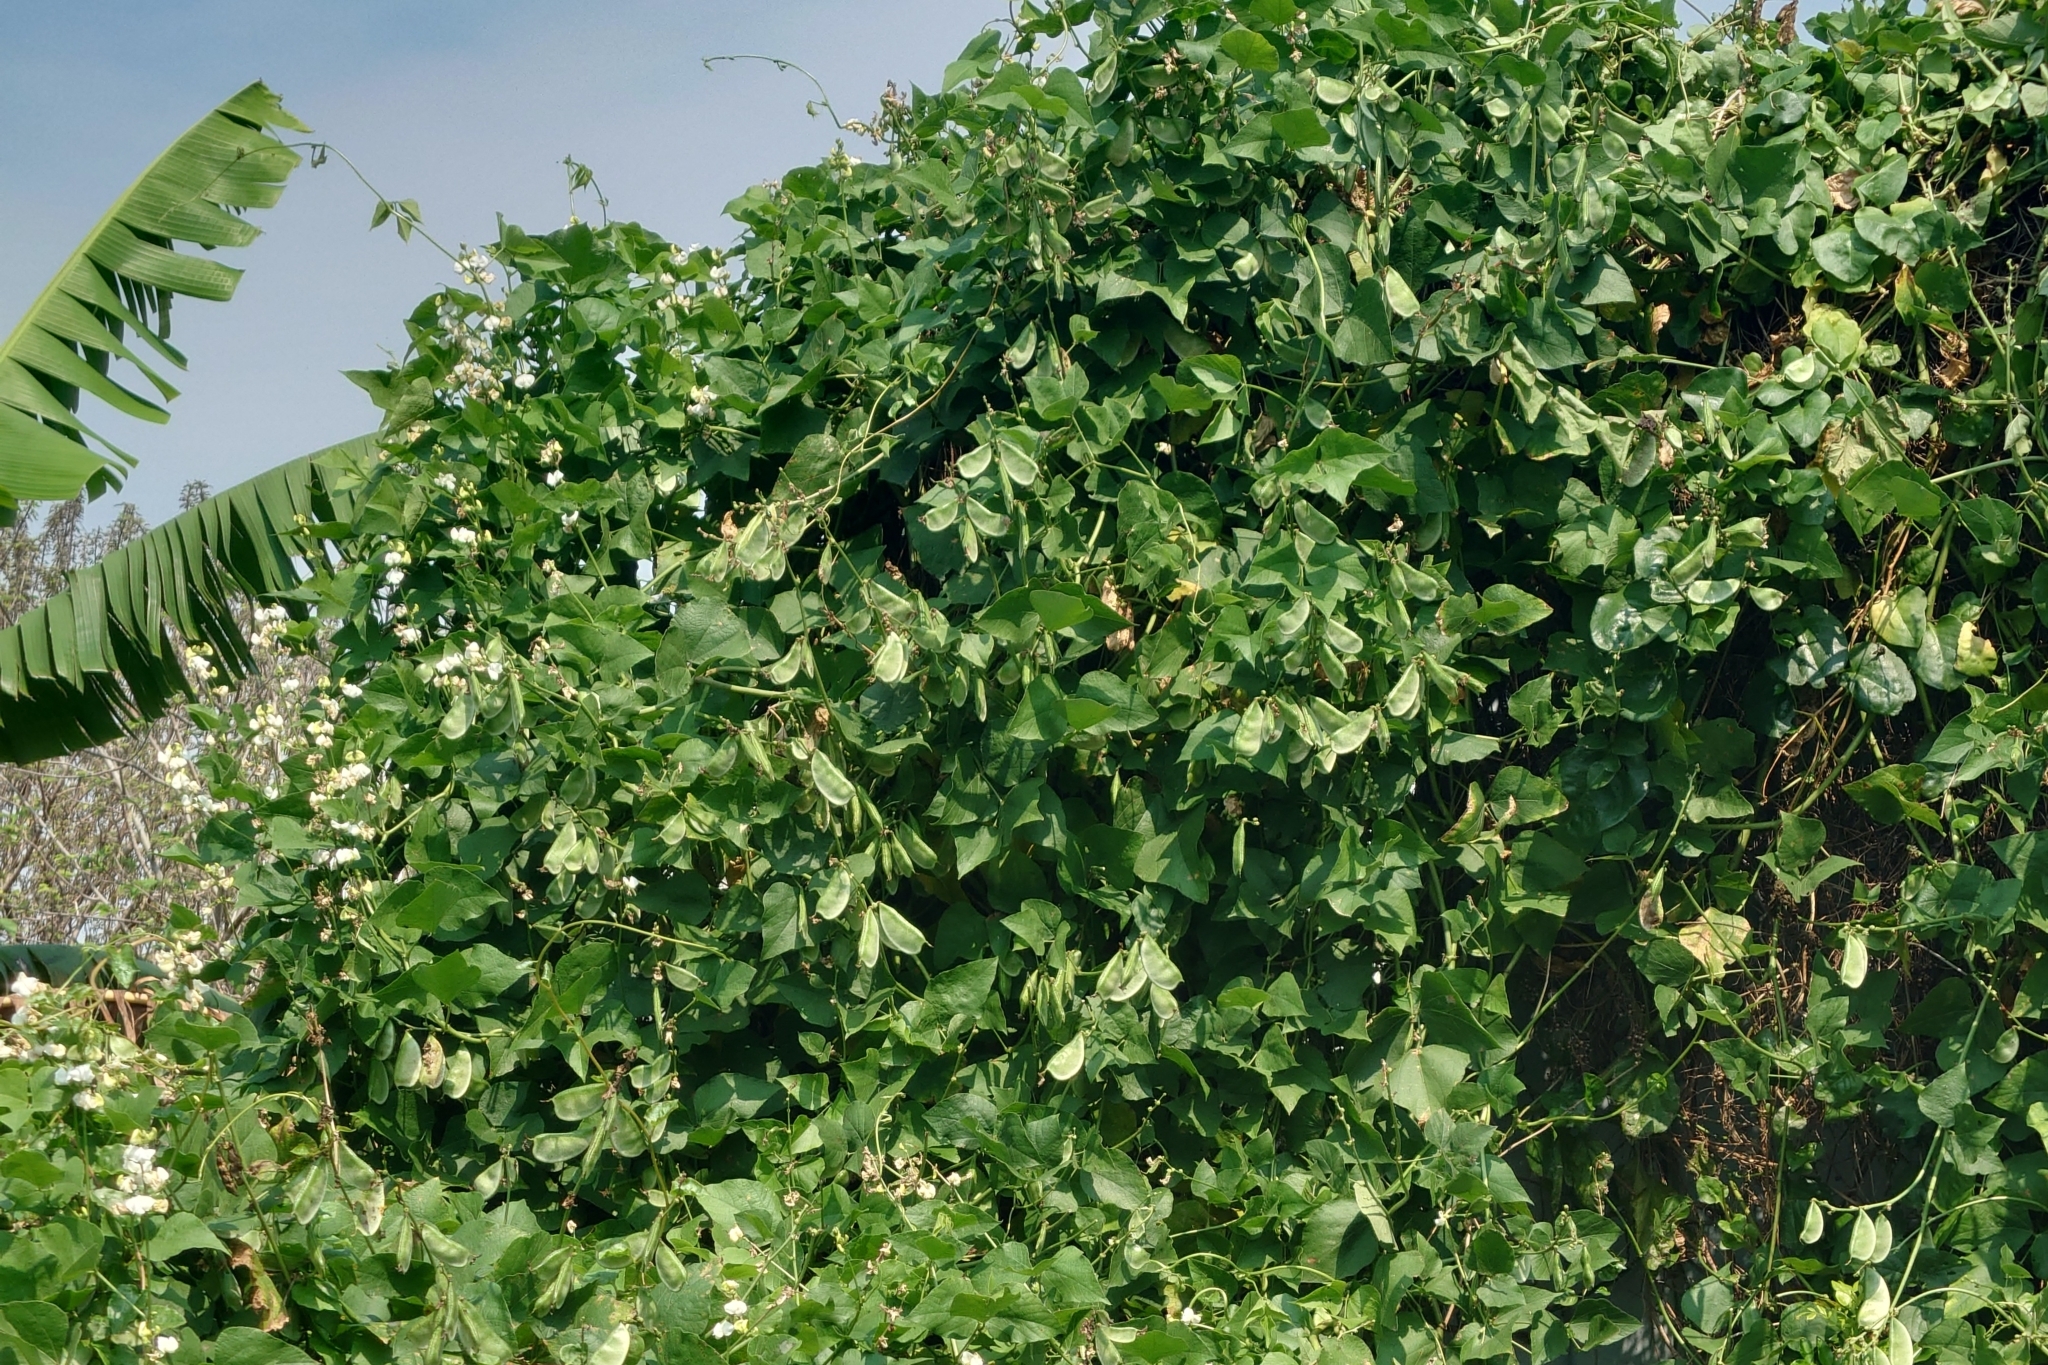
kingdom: Plantae
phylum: Tracheophyta
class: Magnoliopsida
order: Fabales
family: Fabaceae
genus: Lablab
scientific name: Lablab purpureus
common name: Lablab-bean
